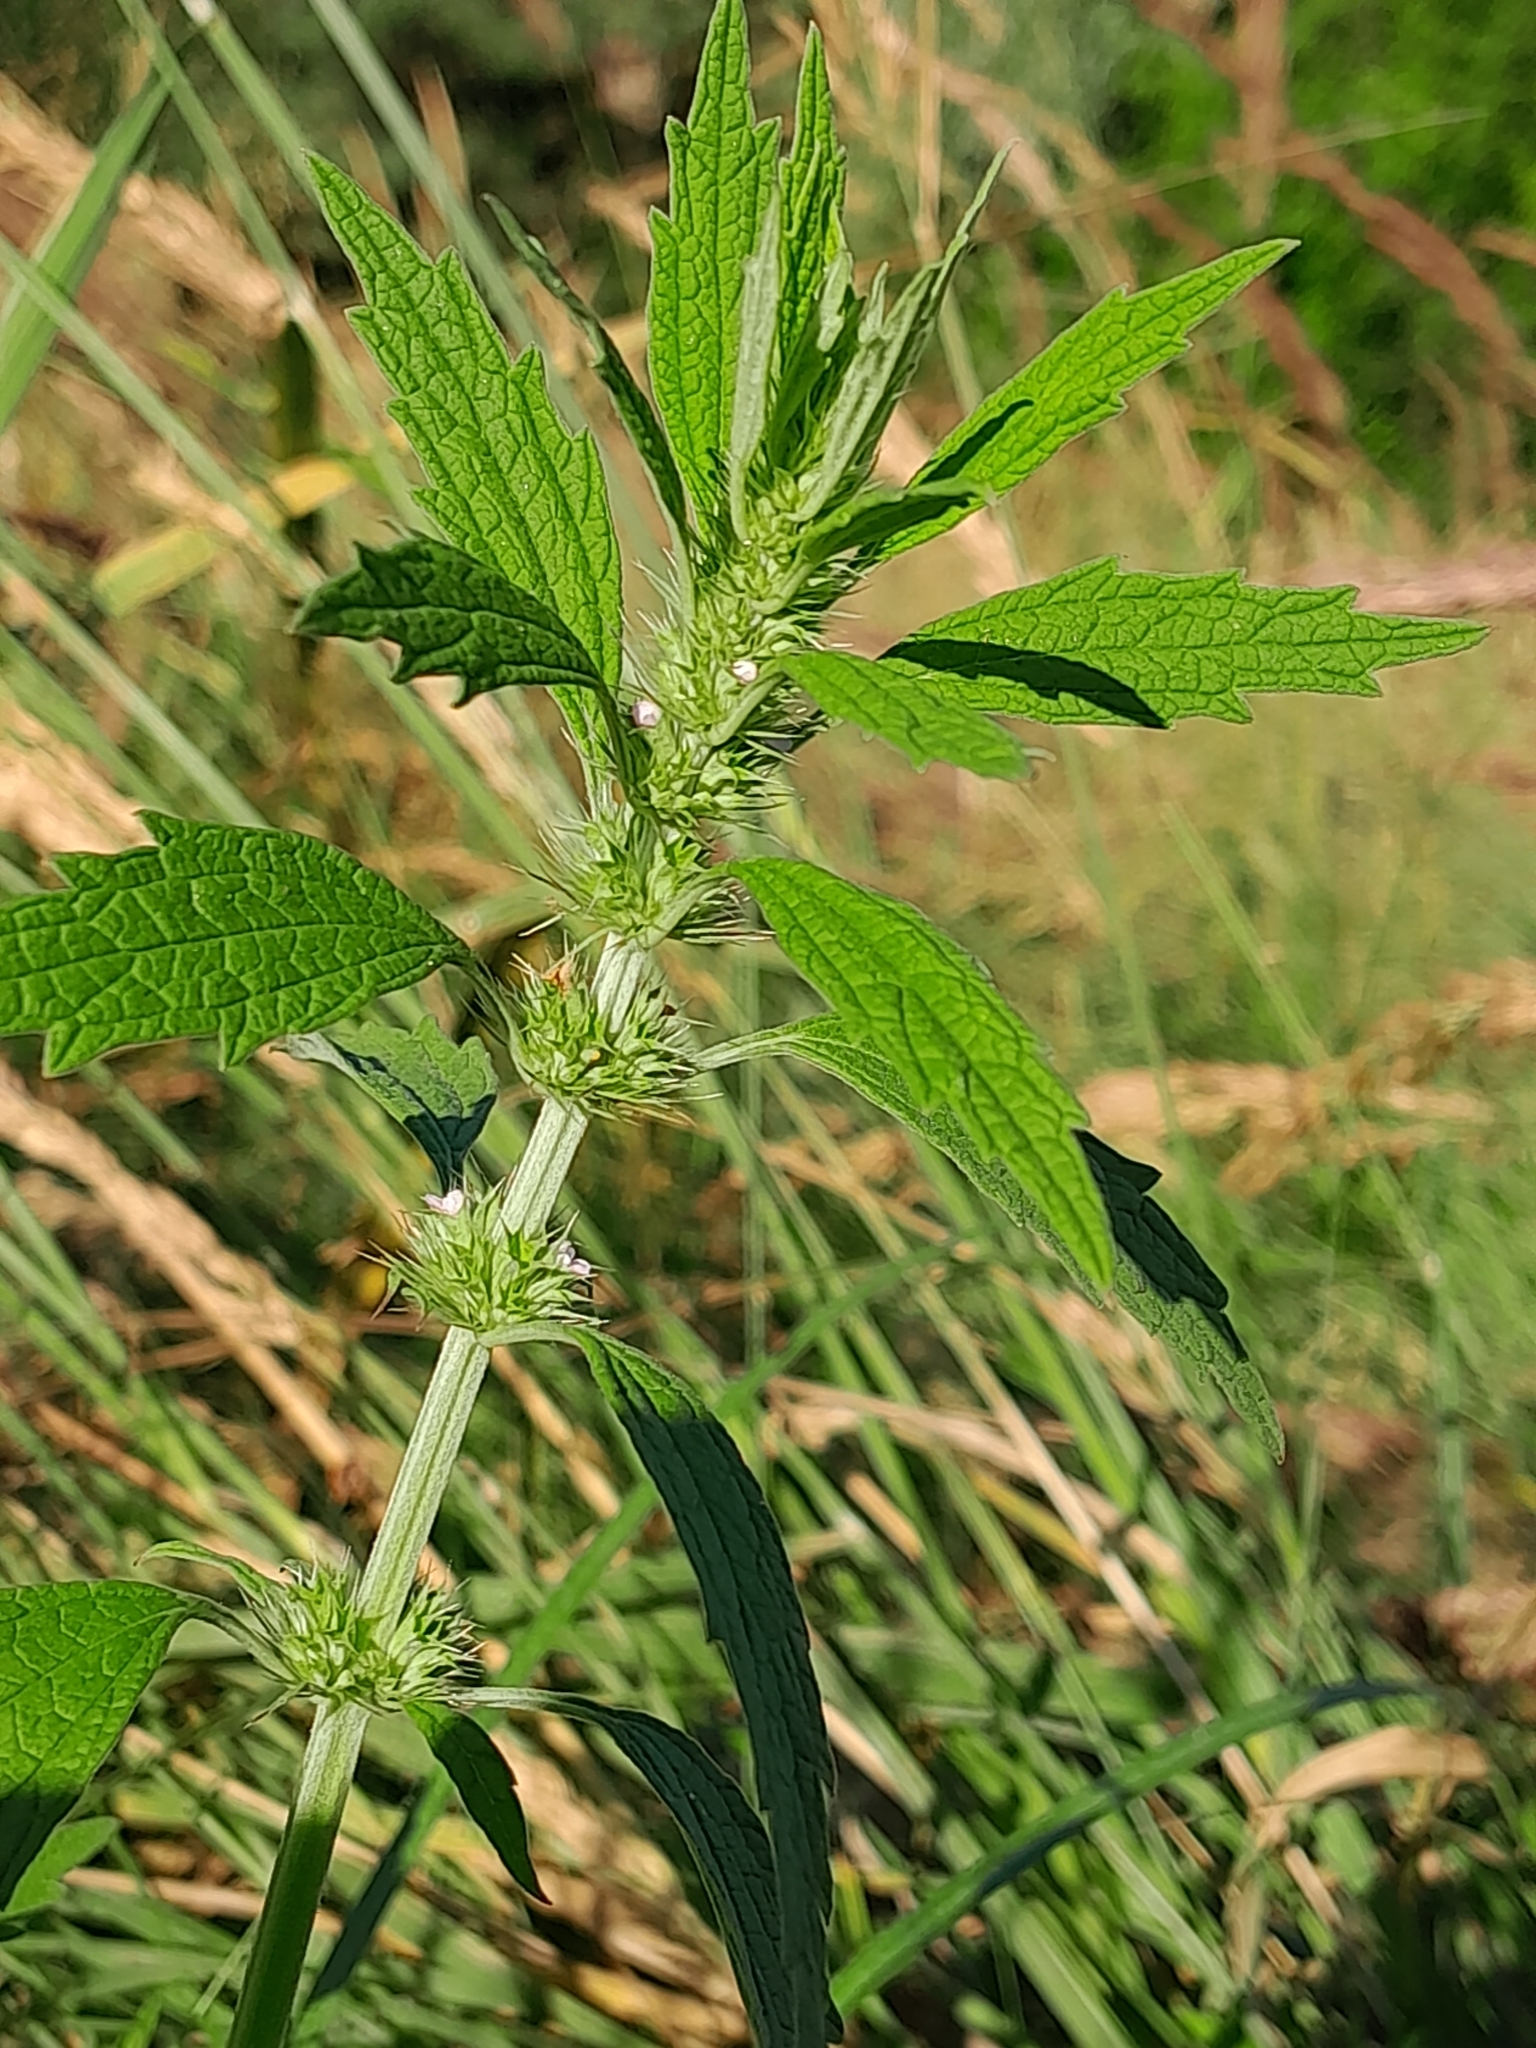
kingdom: Plantae
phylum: Tracheophyta
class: Magnoliopsida
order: Lamiales
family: Lamiaceae
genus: Lycopus
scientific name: Lycopus europaeus
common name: European bugleweed
